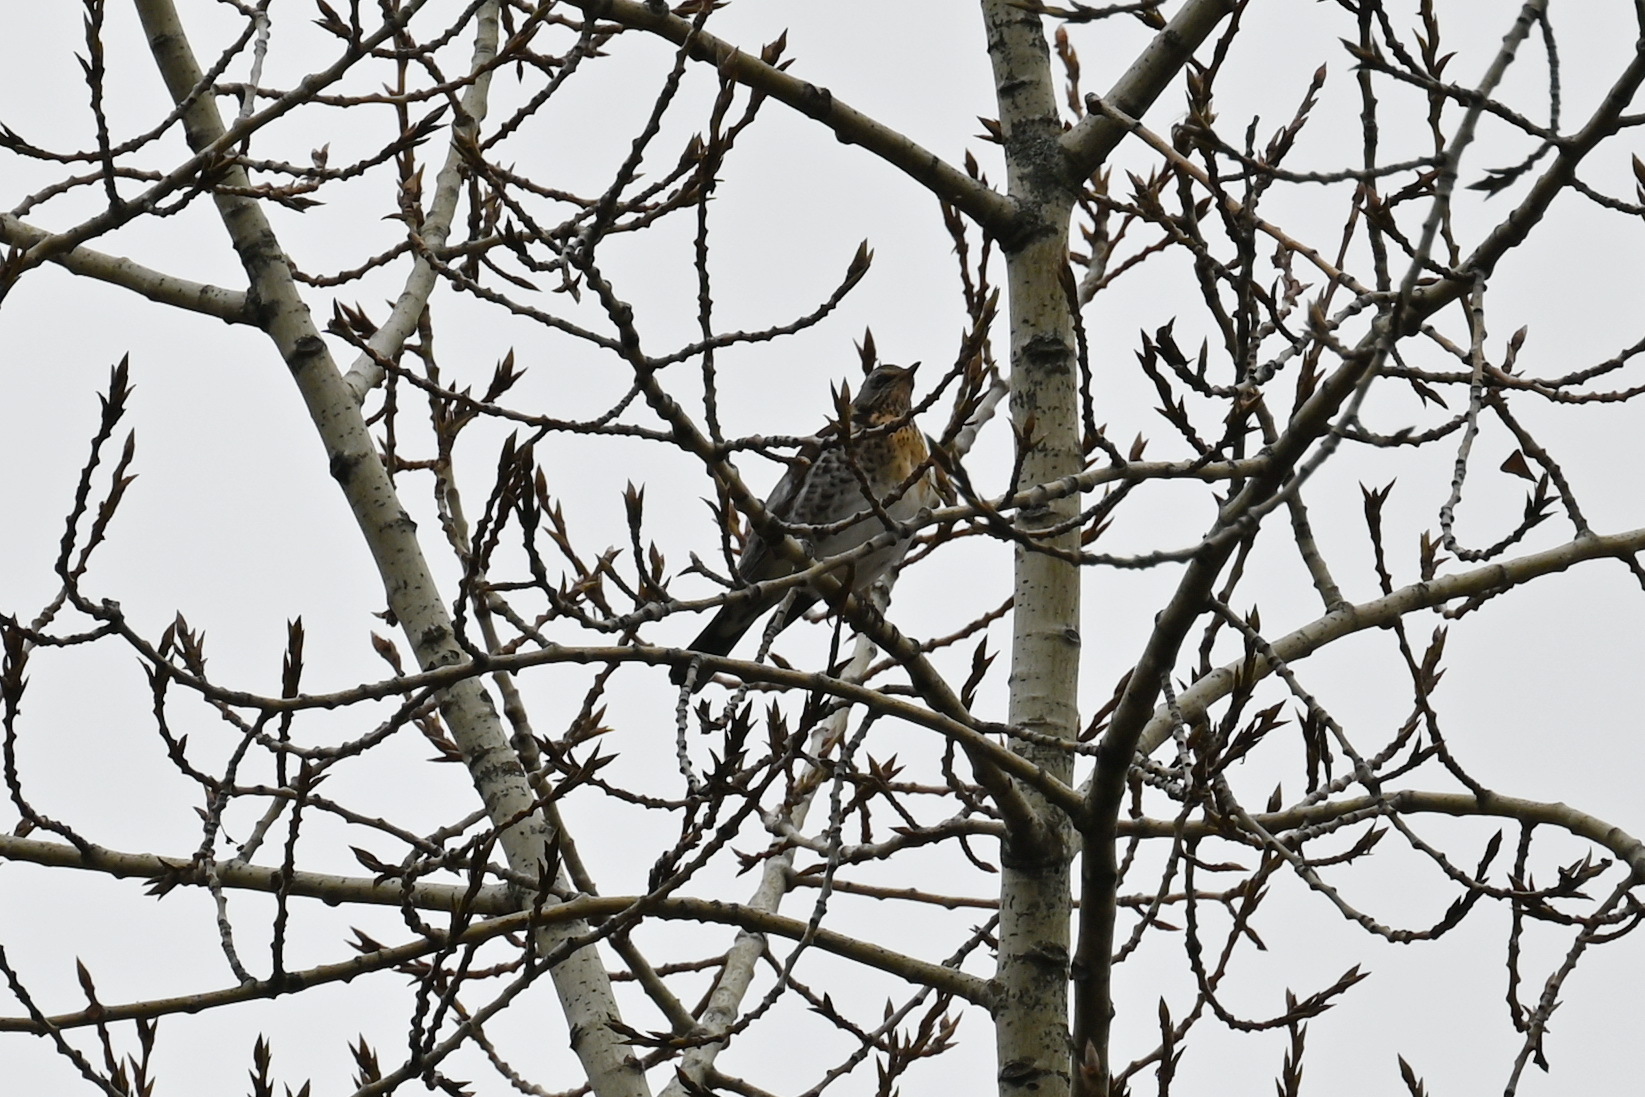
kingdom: Animalia
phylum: Chordata
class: Aves
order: Passeriformes
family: Turdidae
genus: Turdus
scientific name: Turdus pilaris
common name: Fieldfare
